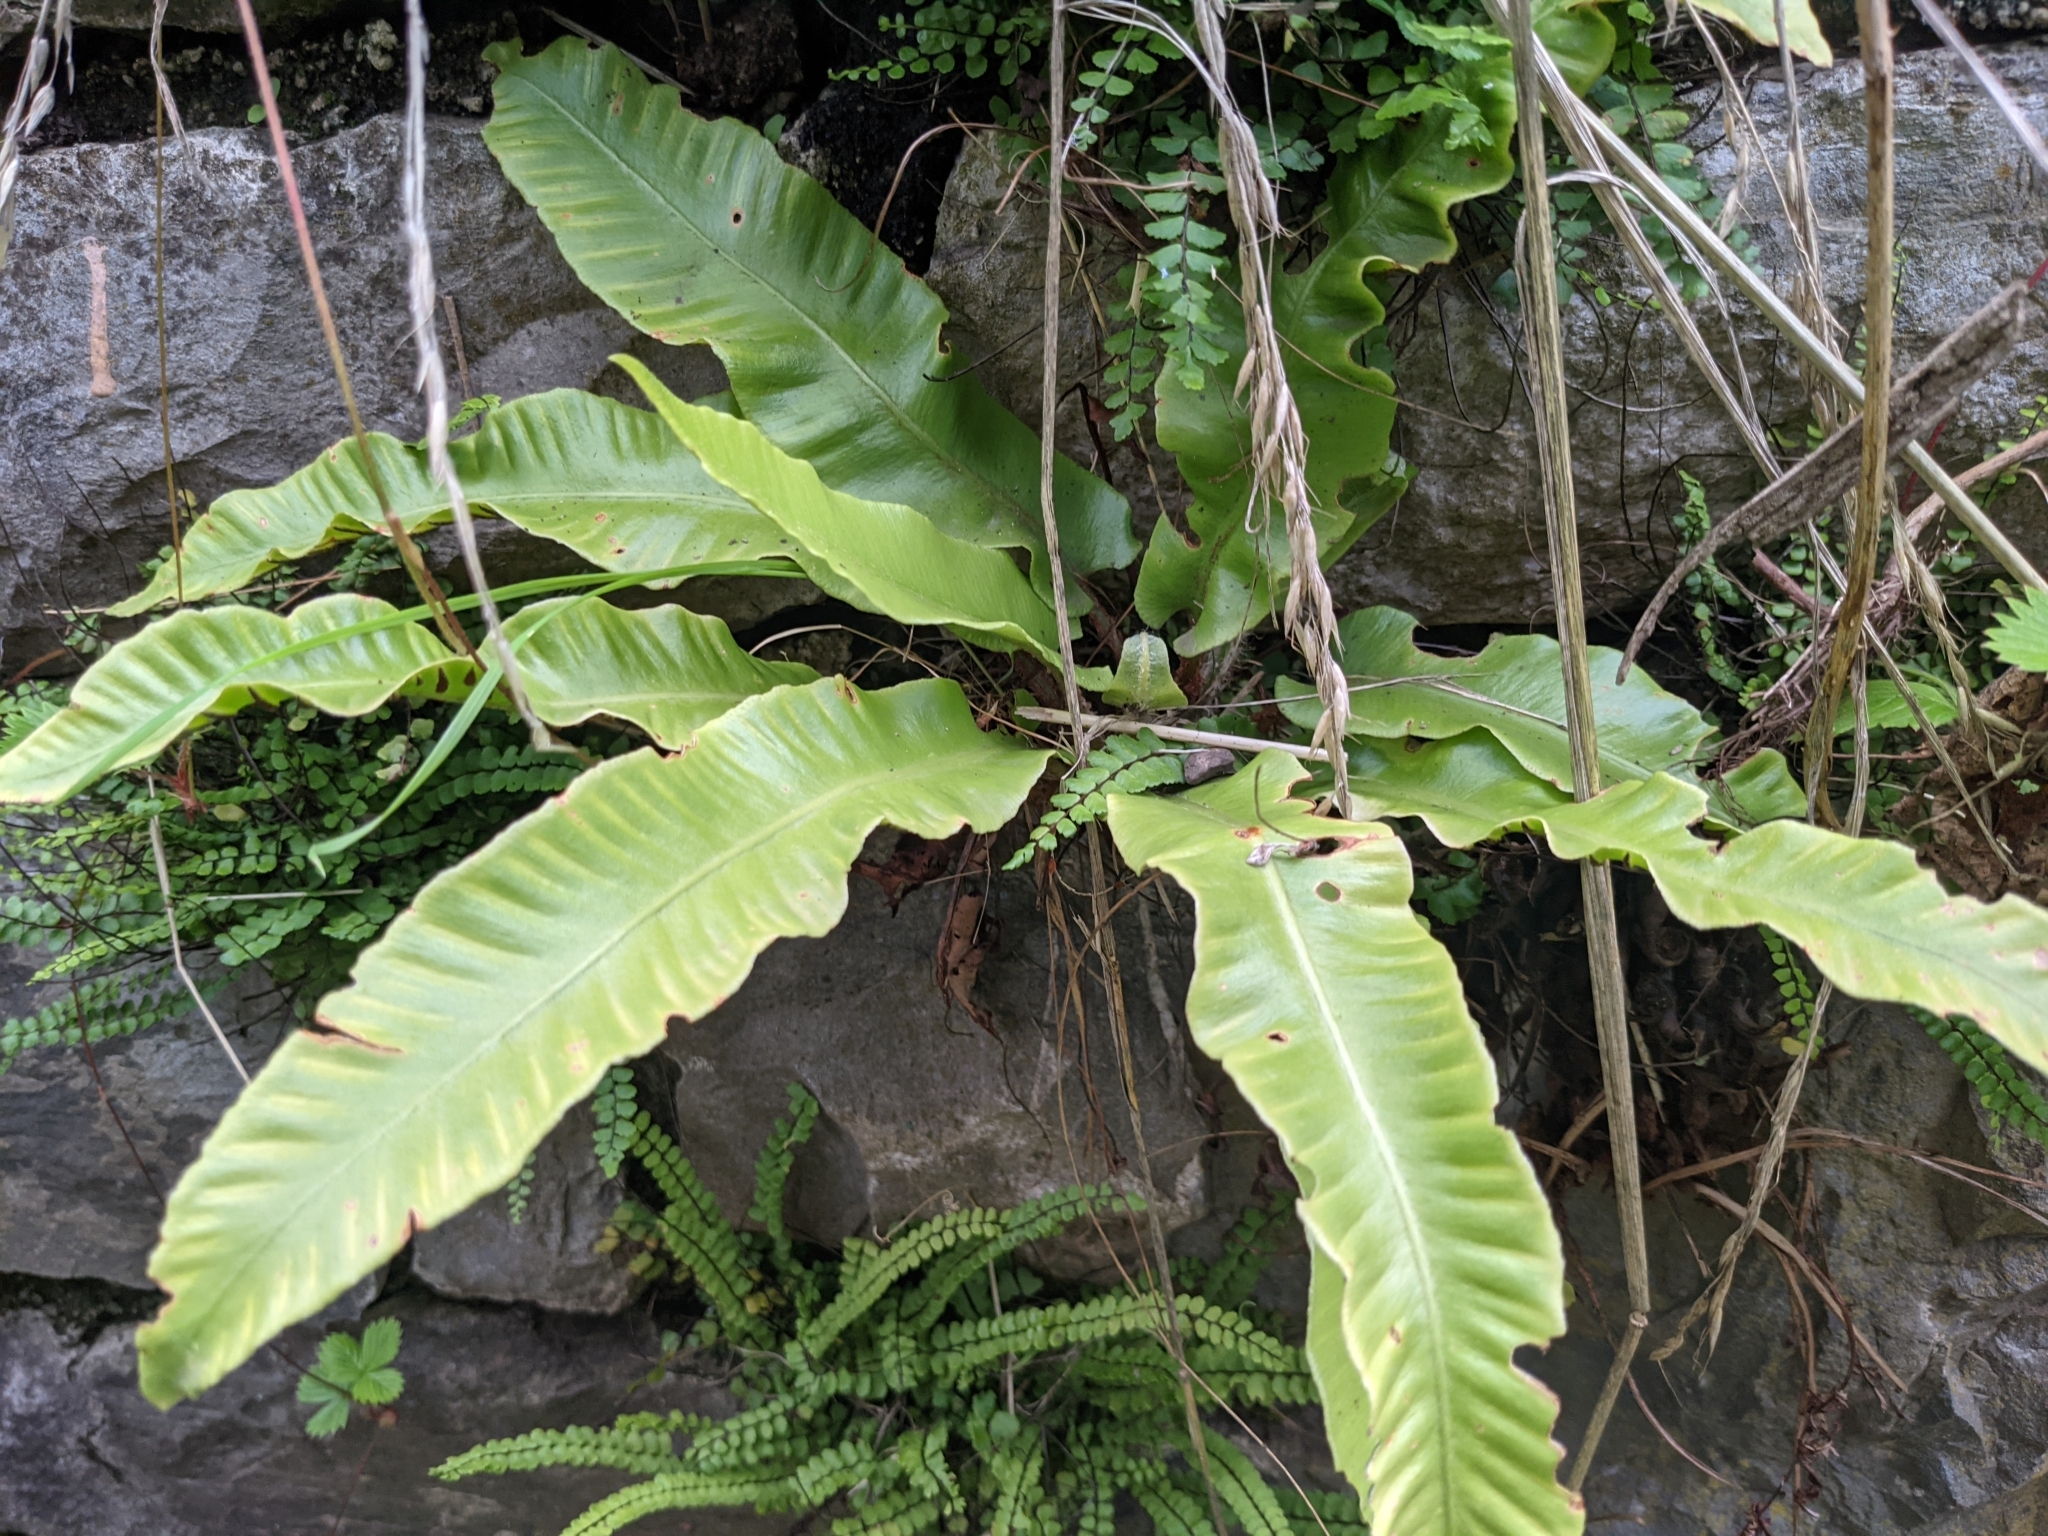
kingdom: Plantae
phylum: Tracheophyta
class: Polypodiopsida
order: Polypodiales
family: Aspleniaceae
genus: Asplenium
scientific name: Asplenium scolopendrium
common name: Hart's-tongue fern
